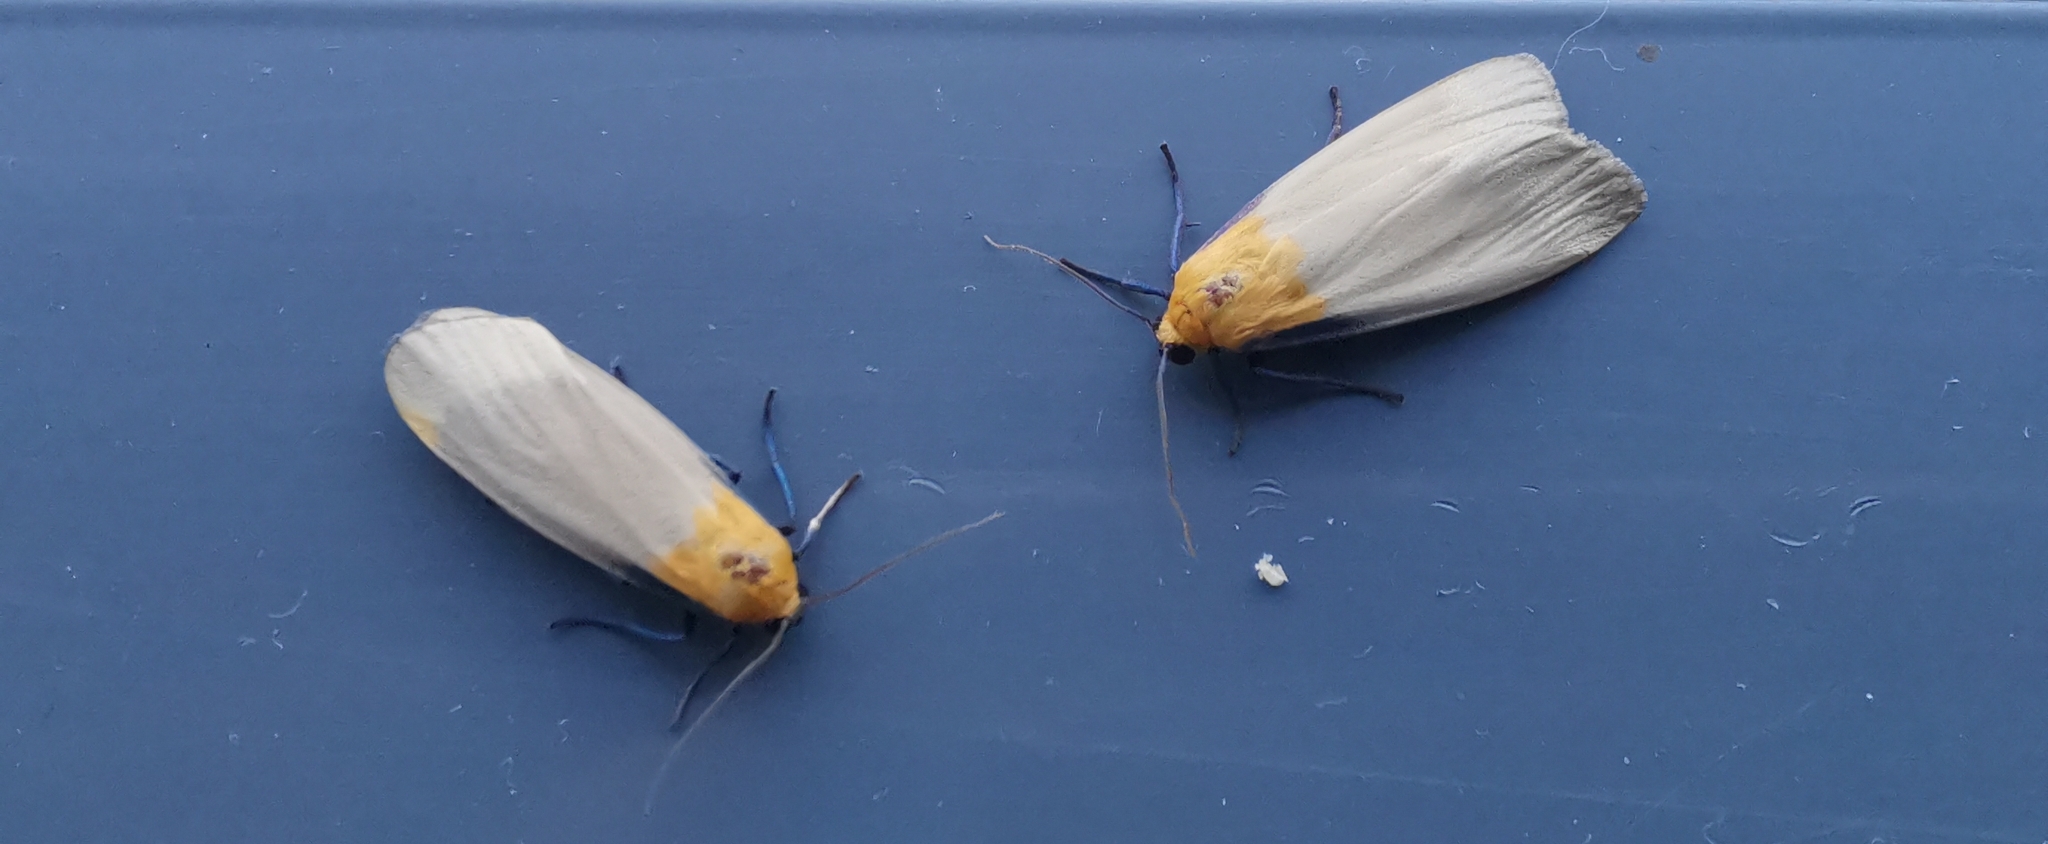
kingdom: Animalia
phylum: Arthropoda
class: Insecta
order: Lepidoptera
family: Erebidae
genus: Lithosia
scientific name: Lithosia quadra
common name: Four-spotted footman
